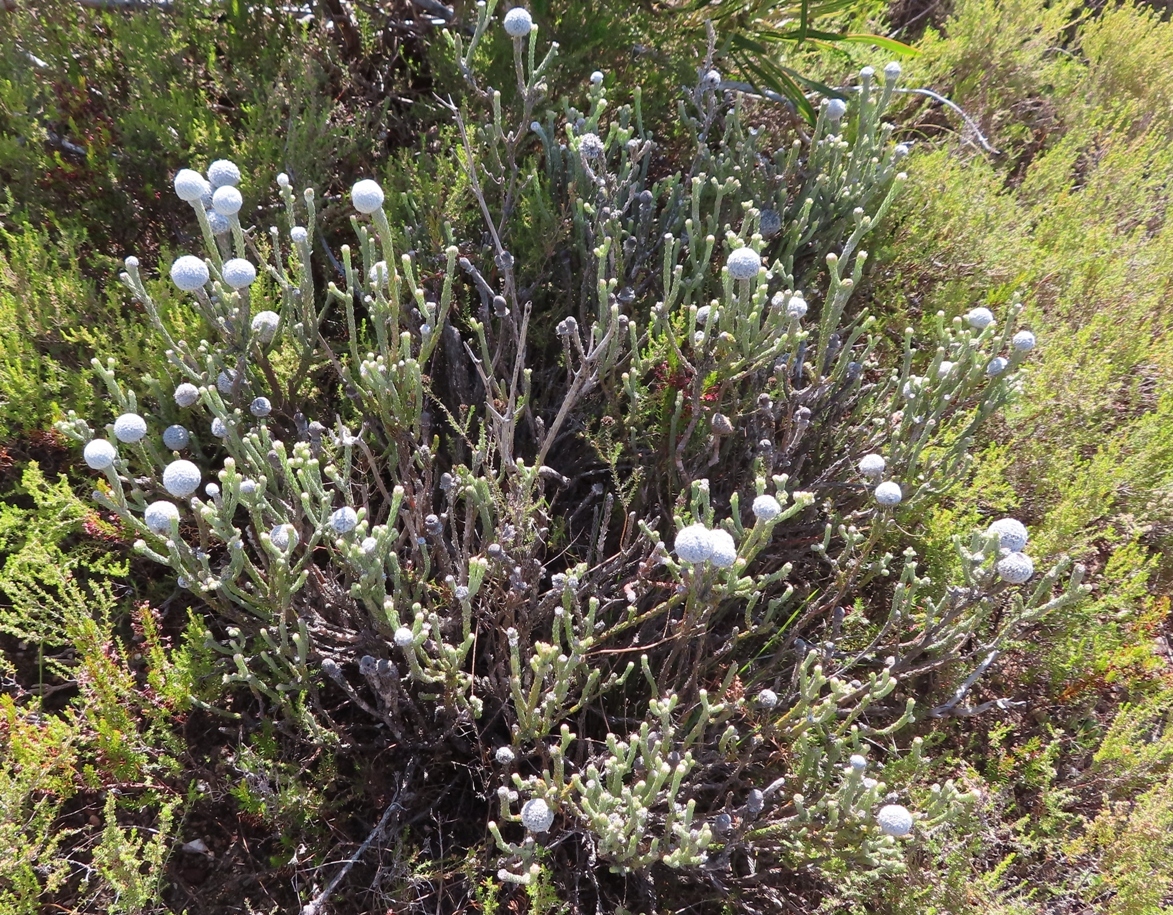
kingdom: Plantae
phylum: Tracheophyta
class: Magnoliopsida
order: Bruniales
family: Bruniaceae
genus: Brunia
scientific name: Brunia laevis
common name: Silver brunia
